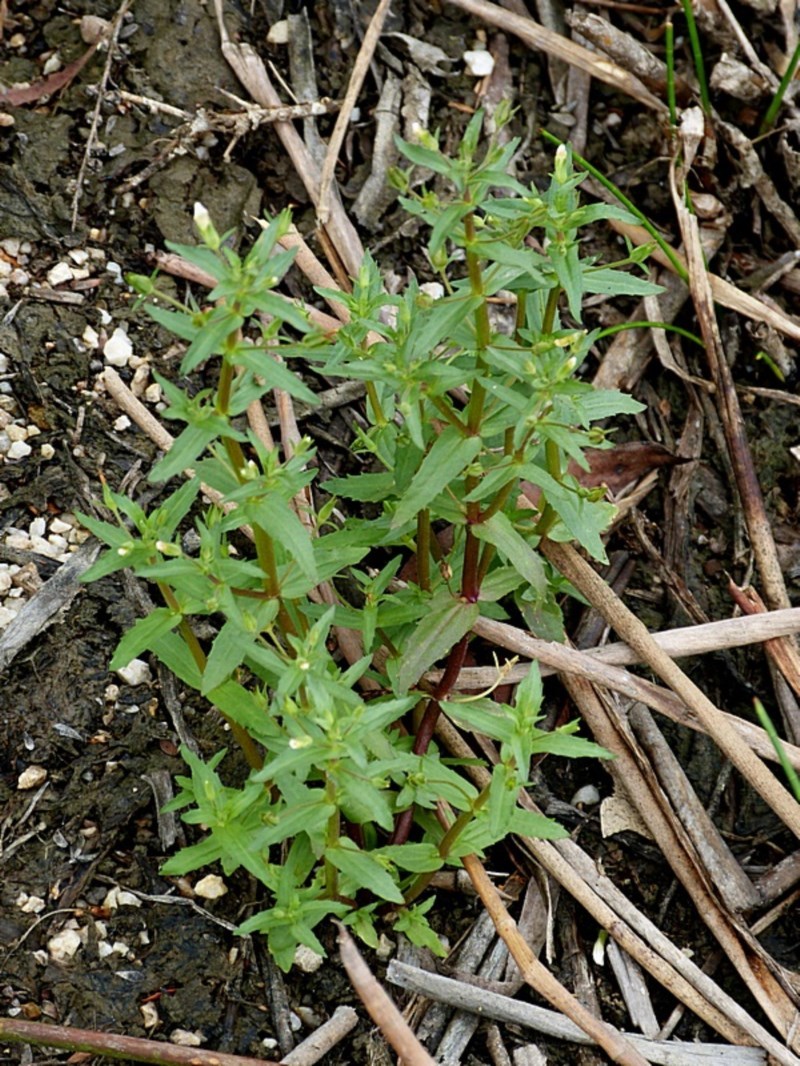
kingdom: Plantae
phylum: Tracheophyta
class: Magnoliopsida
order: Lamiales
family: Plantaginaceae
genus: Gratiola
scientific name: Gratiola pedunculata
